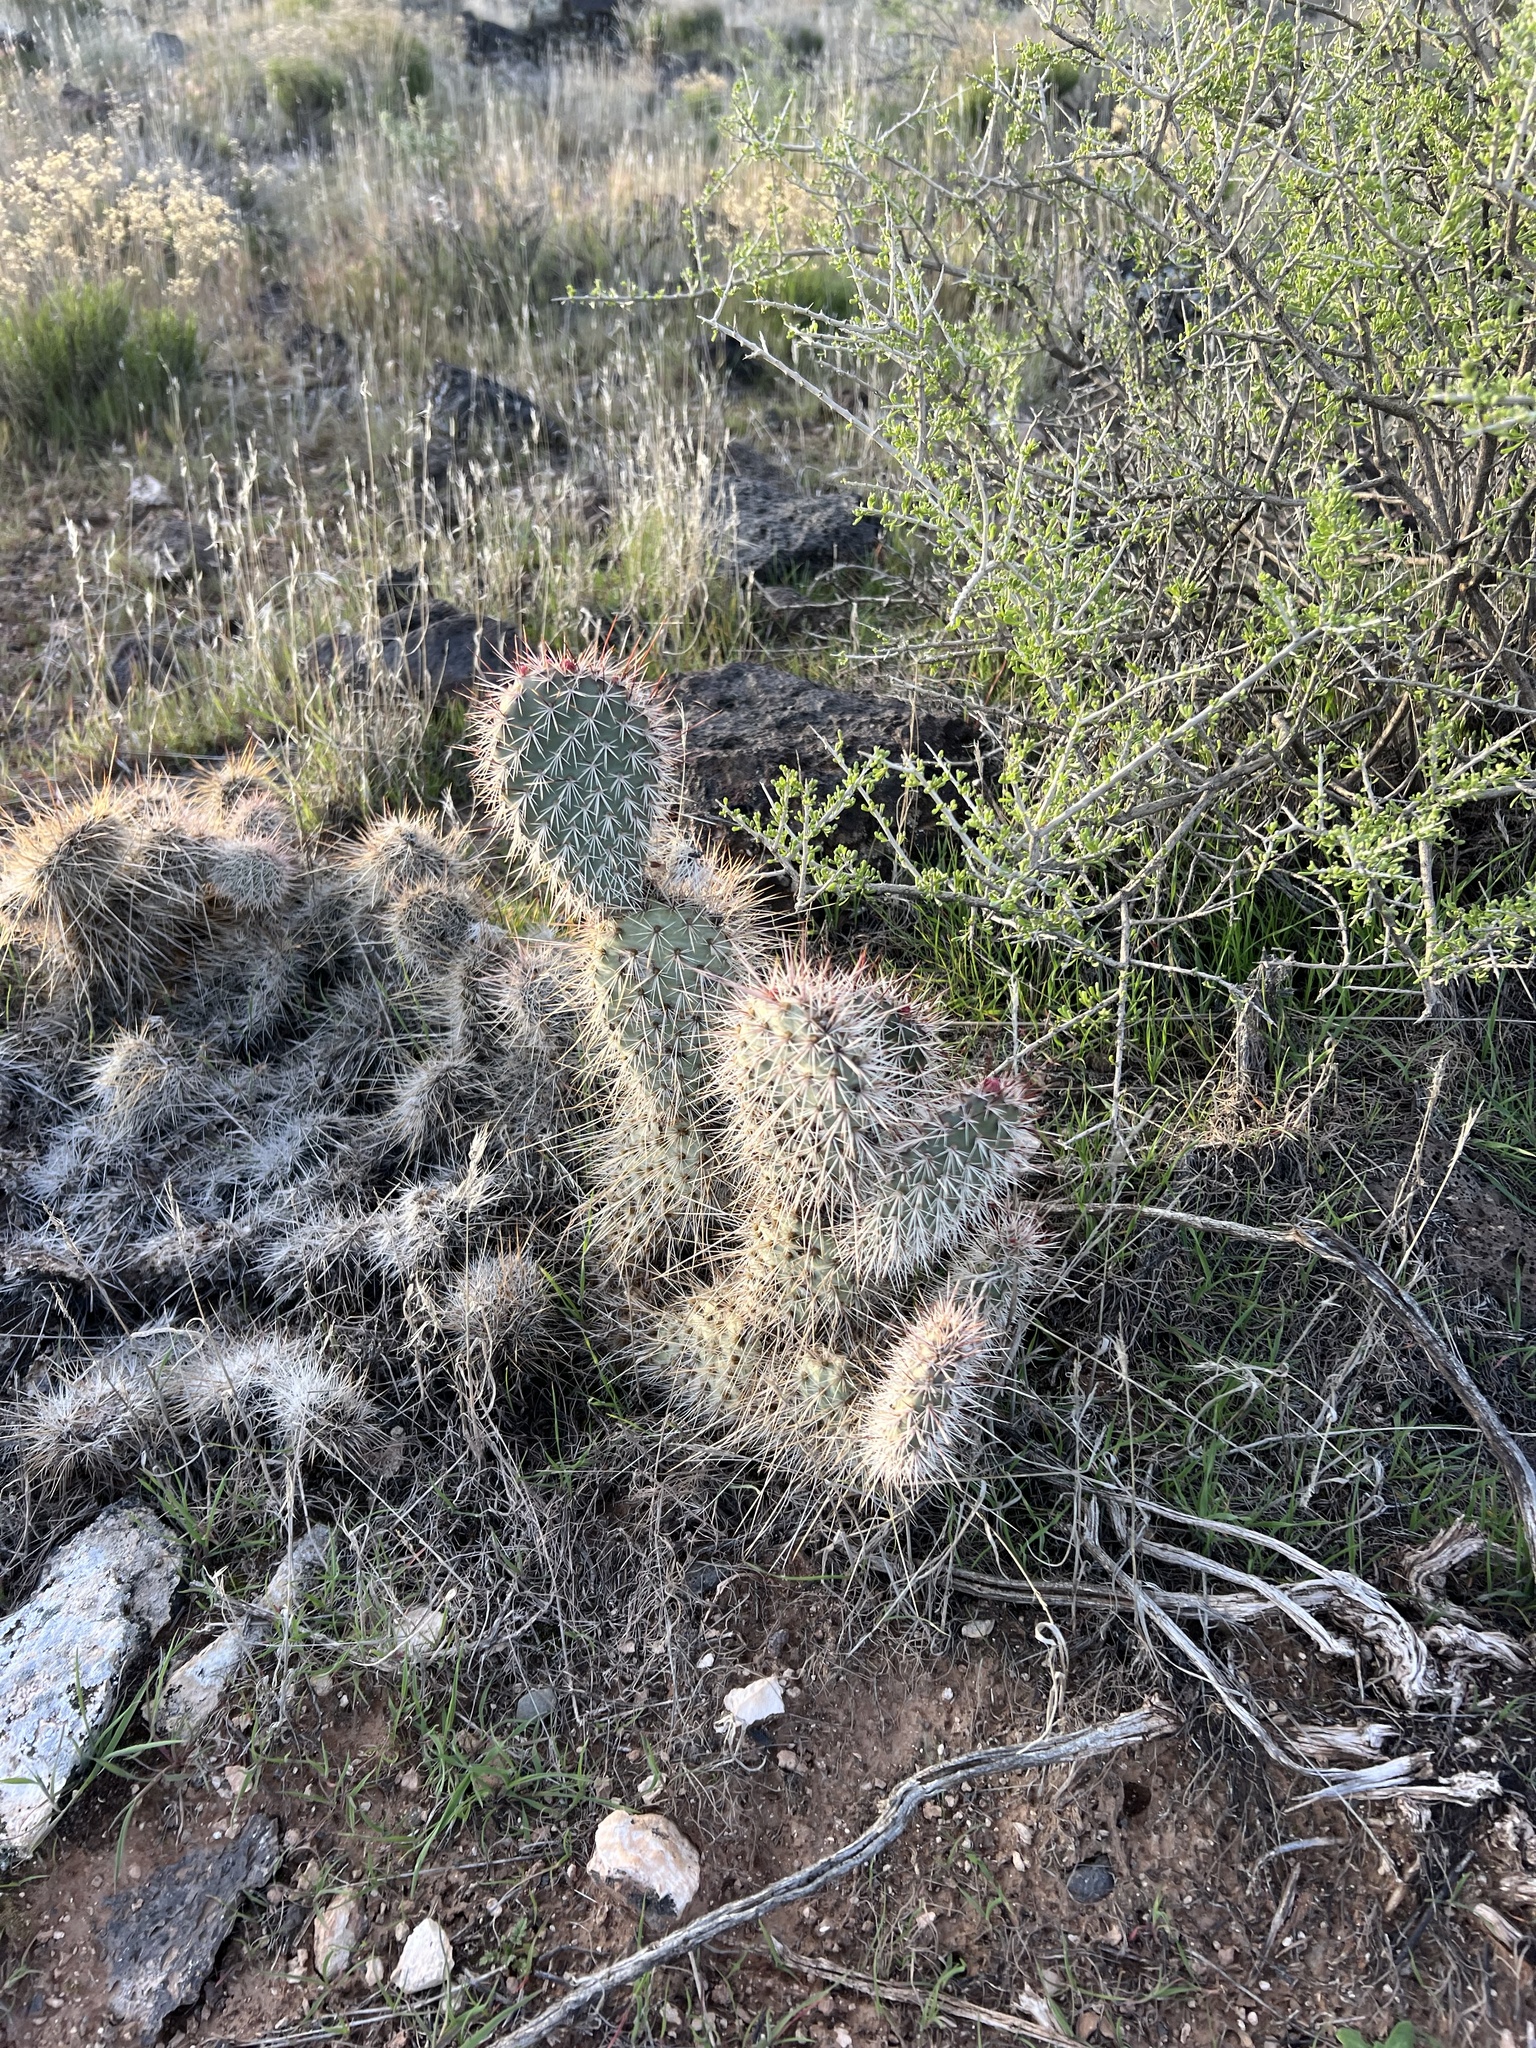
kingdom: Plantae
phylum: Tracheophyta
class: Magnoliopsida
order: Caryophyllales
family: Cactaceae
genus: Opuntia
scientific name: Opuntia polyacantha
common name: Plains prickly-pear
